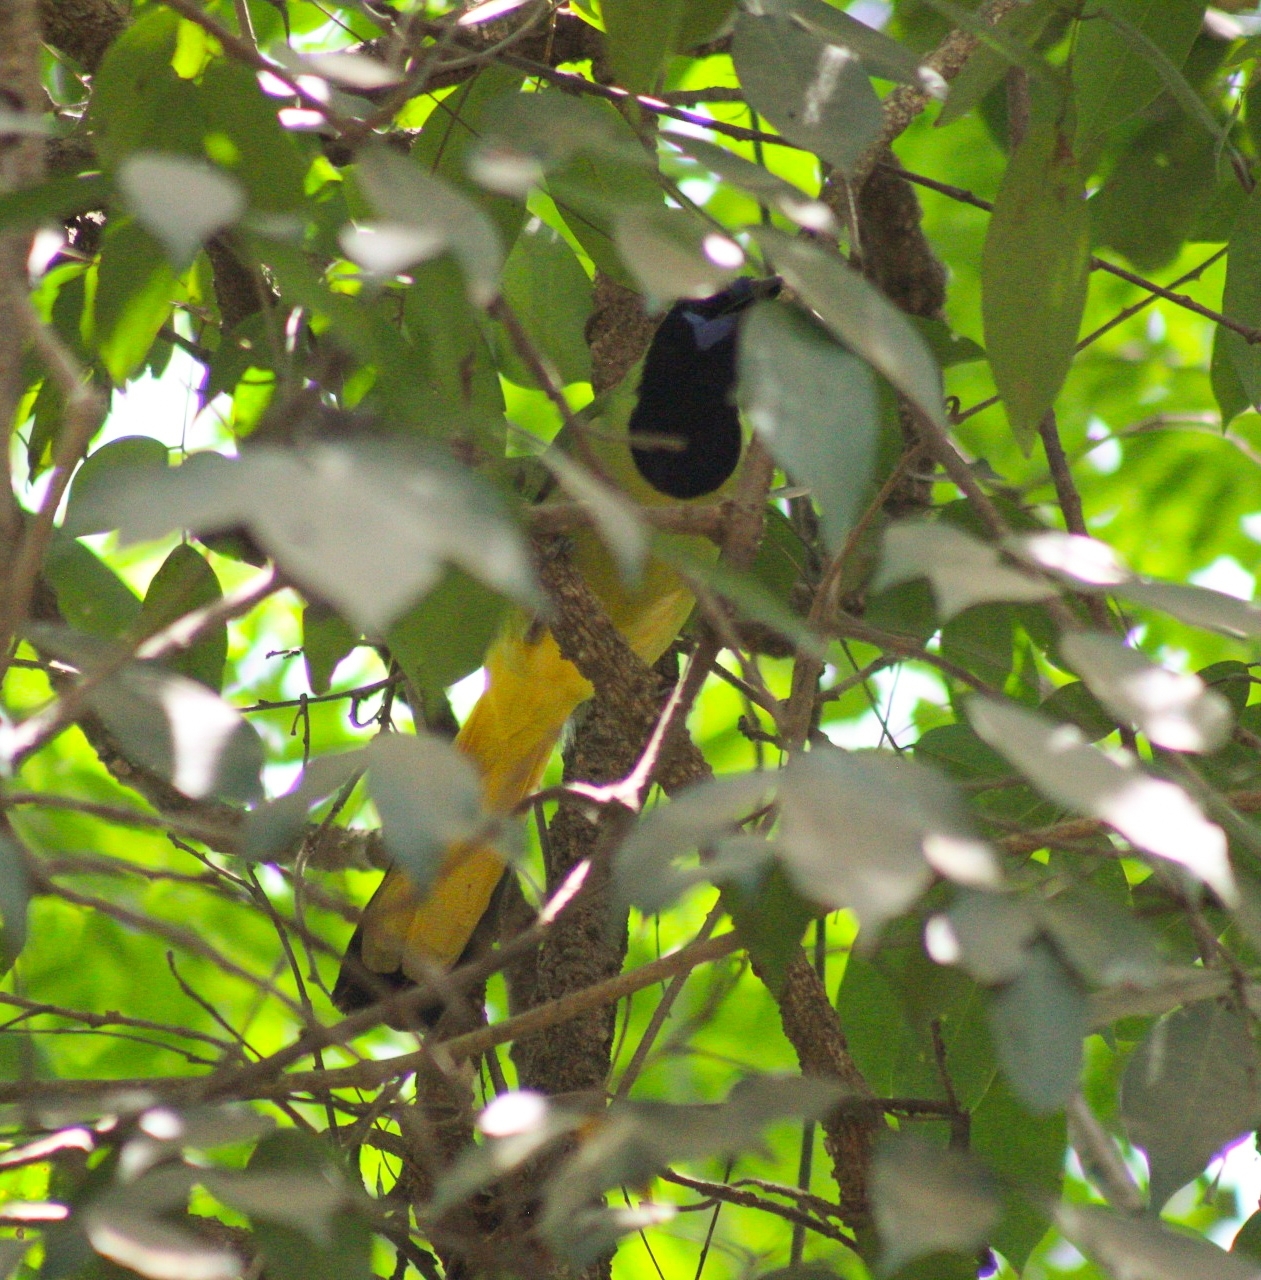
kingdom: Animalia
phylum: Chordata
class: Aves
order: Passeriformes
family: Corvidae
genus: Cyanocorax
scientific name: Cyanocorax yncas
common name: Green jay
